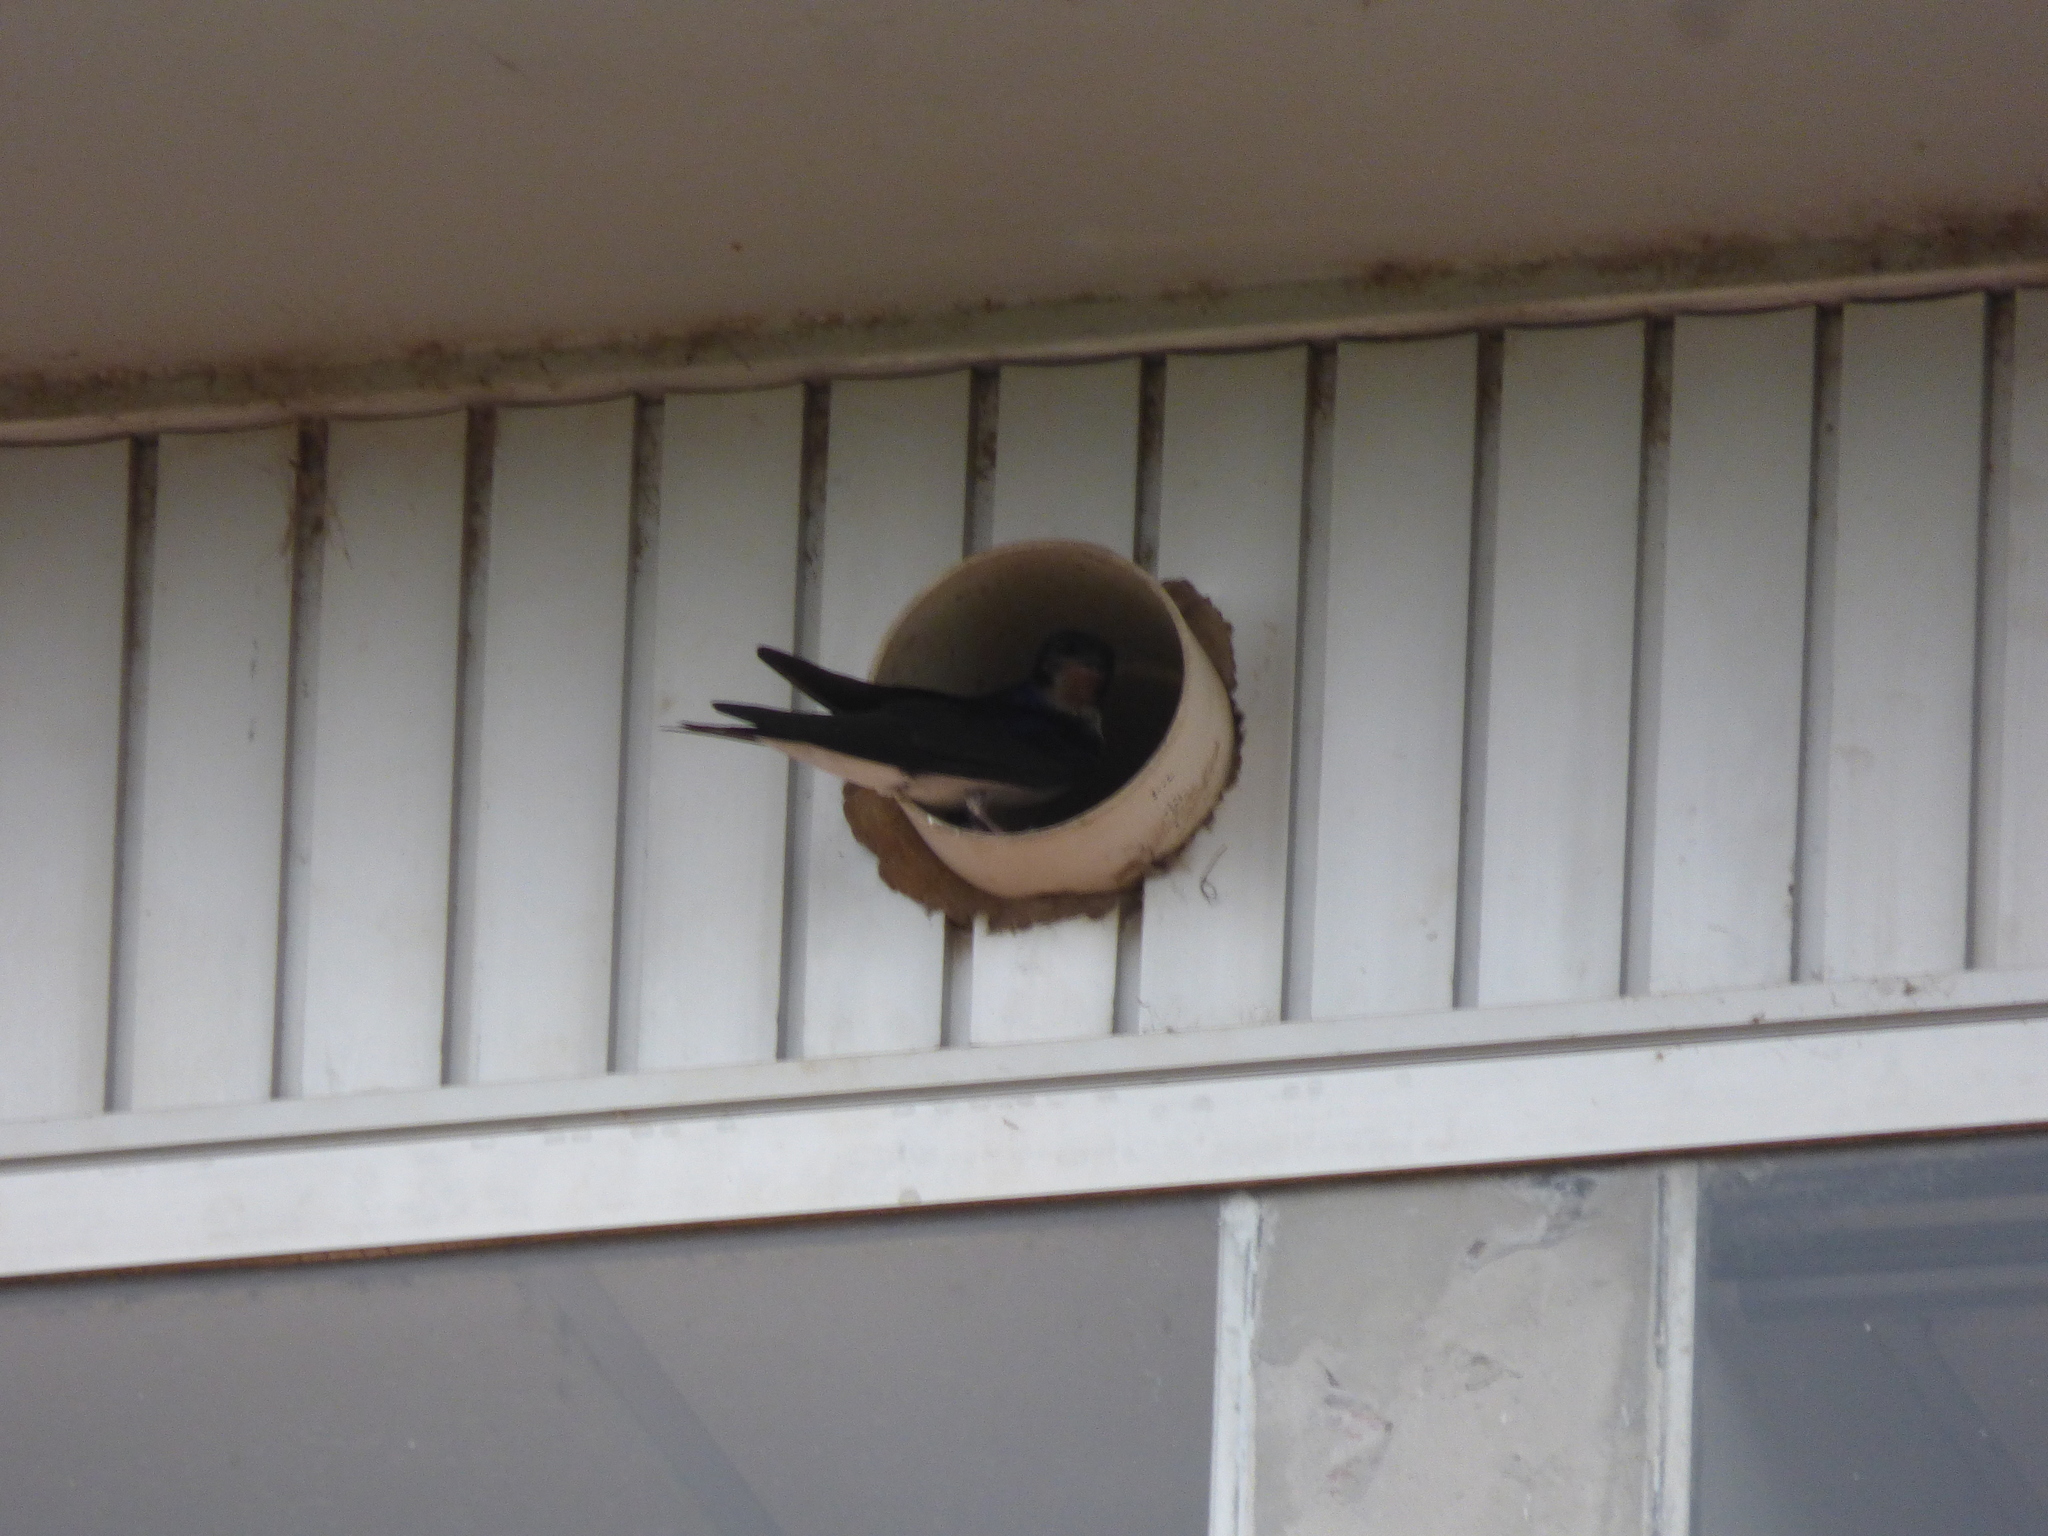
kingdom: Animalia
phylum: Chordata
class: Aves
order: Passeriformes
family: Hirundinidae
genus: Progne
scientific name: Progne chalybea
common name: Grey-breasted martin
